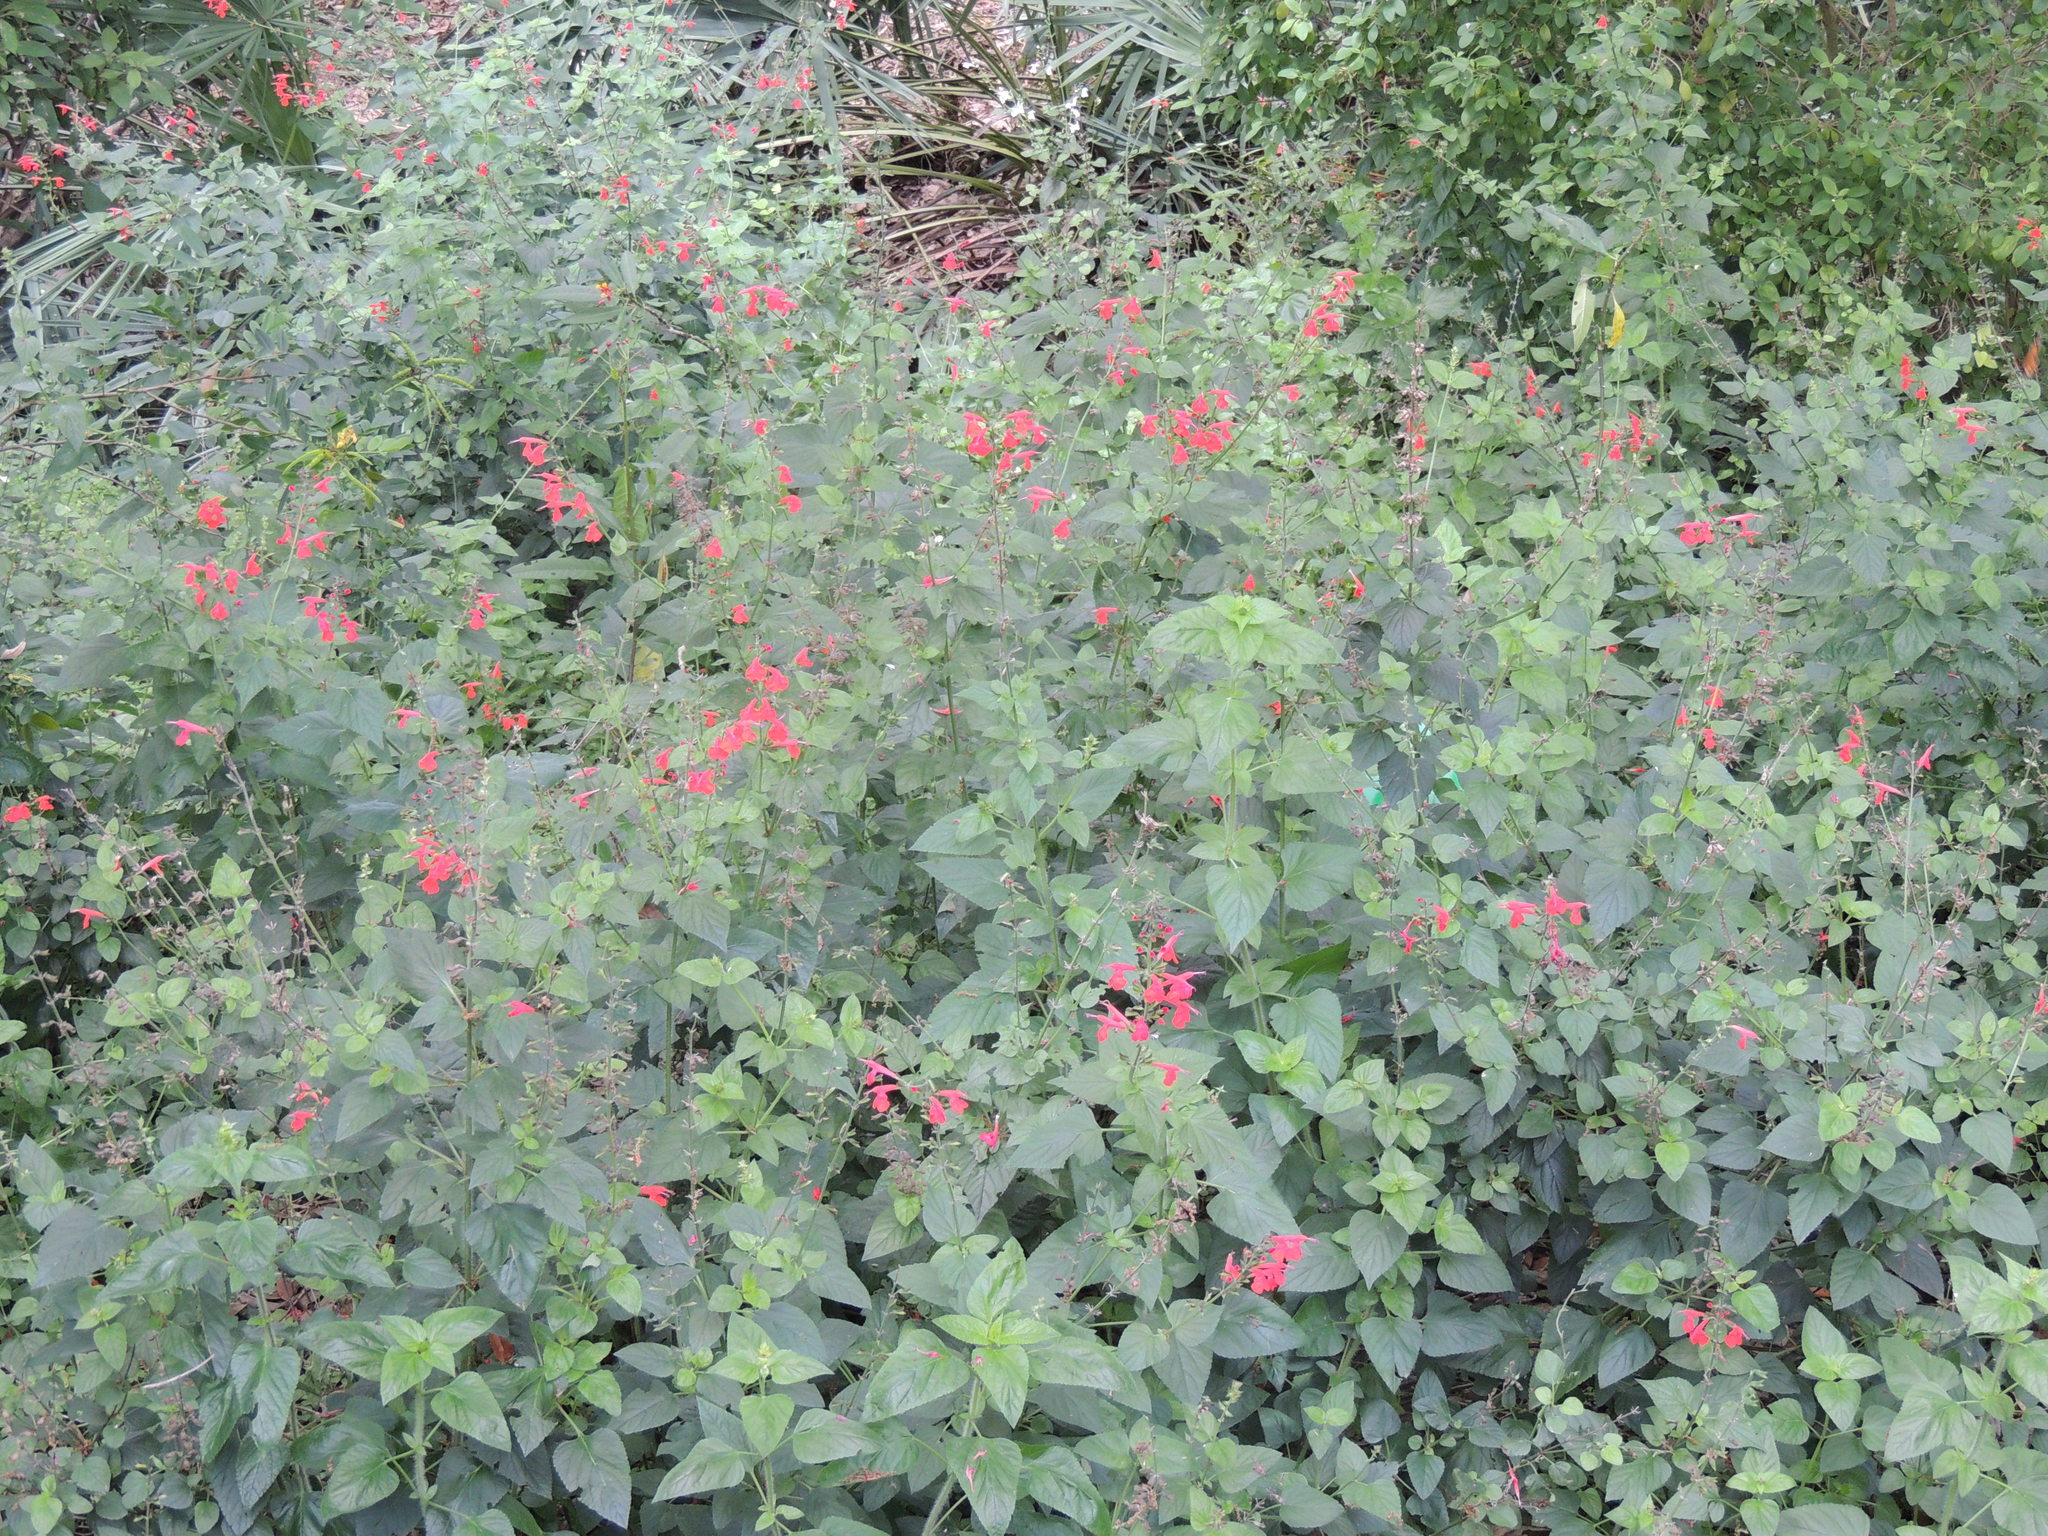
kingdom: Plantae
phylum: Tracheophyta
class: Magnoliopsida
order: Lamiales
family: Lamiaceae
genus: Salvia
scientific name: Salvia coccinea
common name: Blood sage
